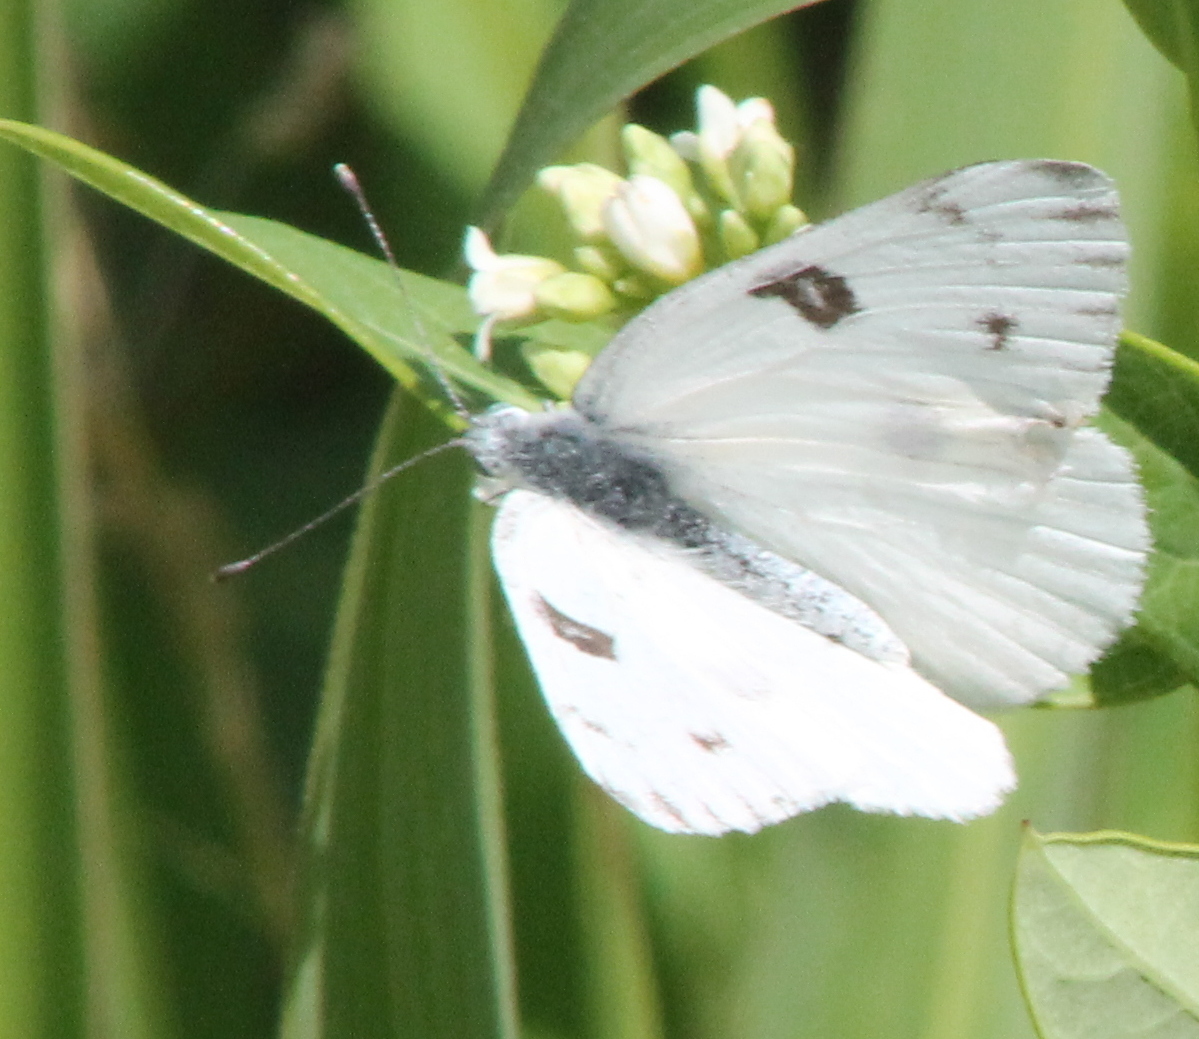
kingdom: Animalia
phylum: Arthropoda
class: Insecta
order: Lepidoptera
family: Pieridae
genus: Pontia
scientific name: Pontia protodice
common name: Checkered white
